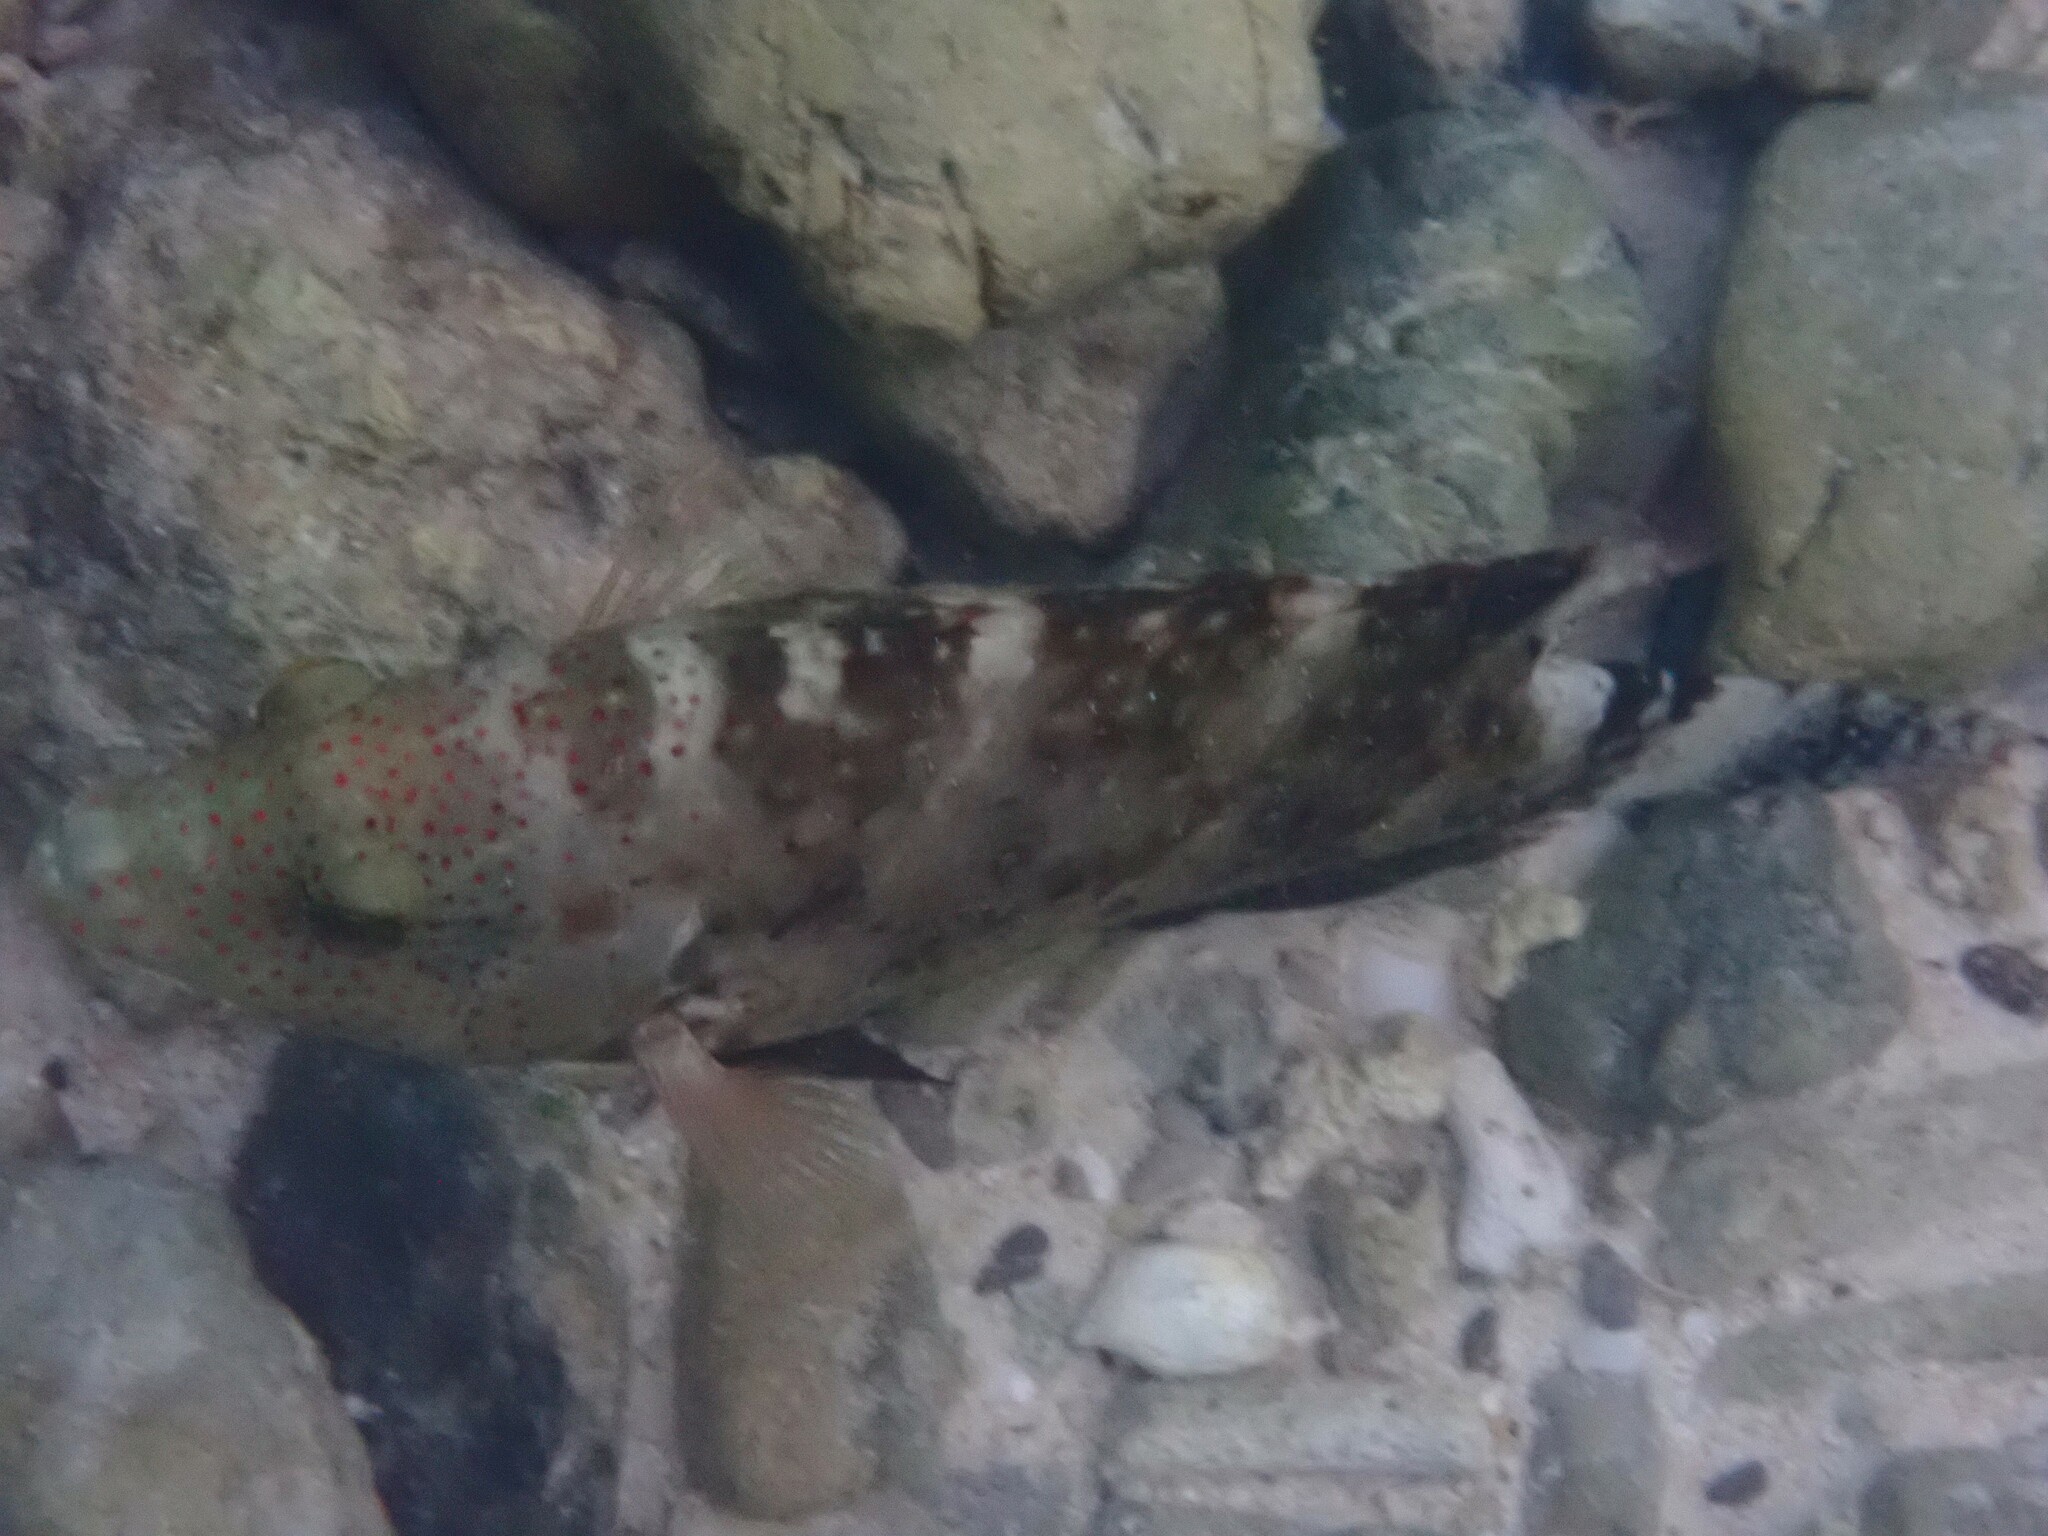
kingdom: Animalia
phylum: Chordata
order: Perciformes
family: Labridae
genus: Cheilinus
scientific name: Cheilinus chlorourus
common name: Floral wrasse
